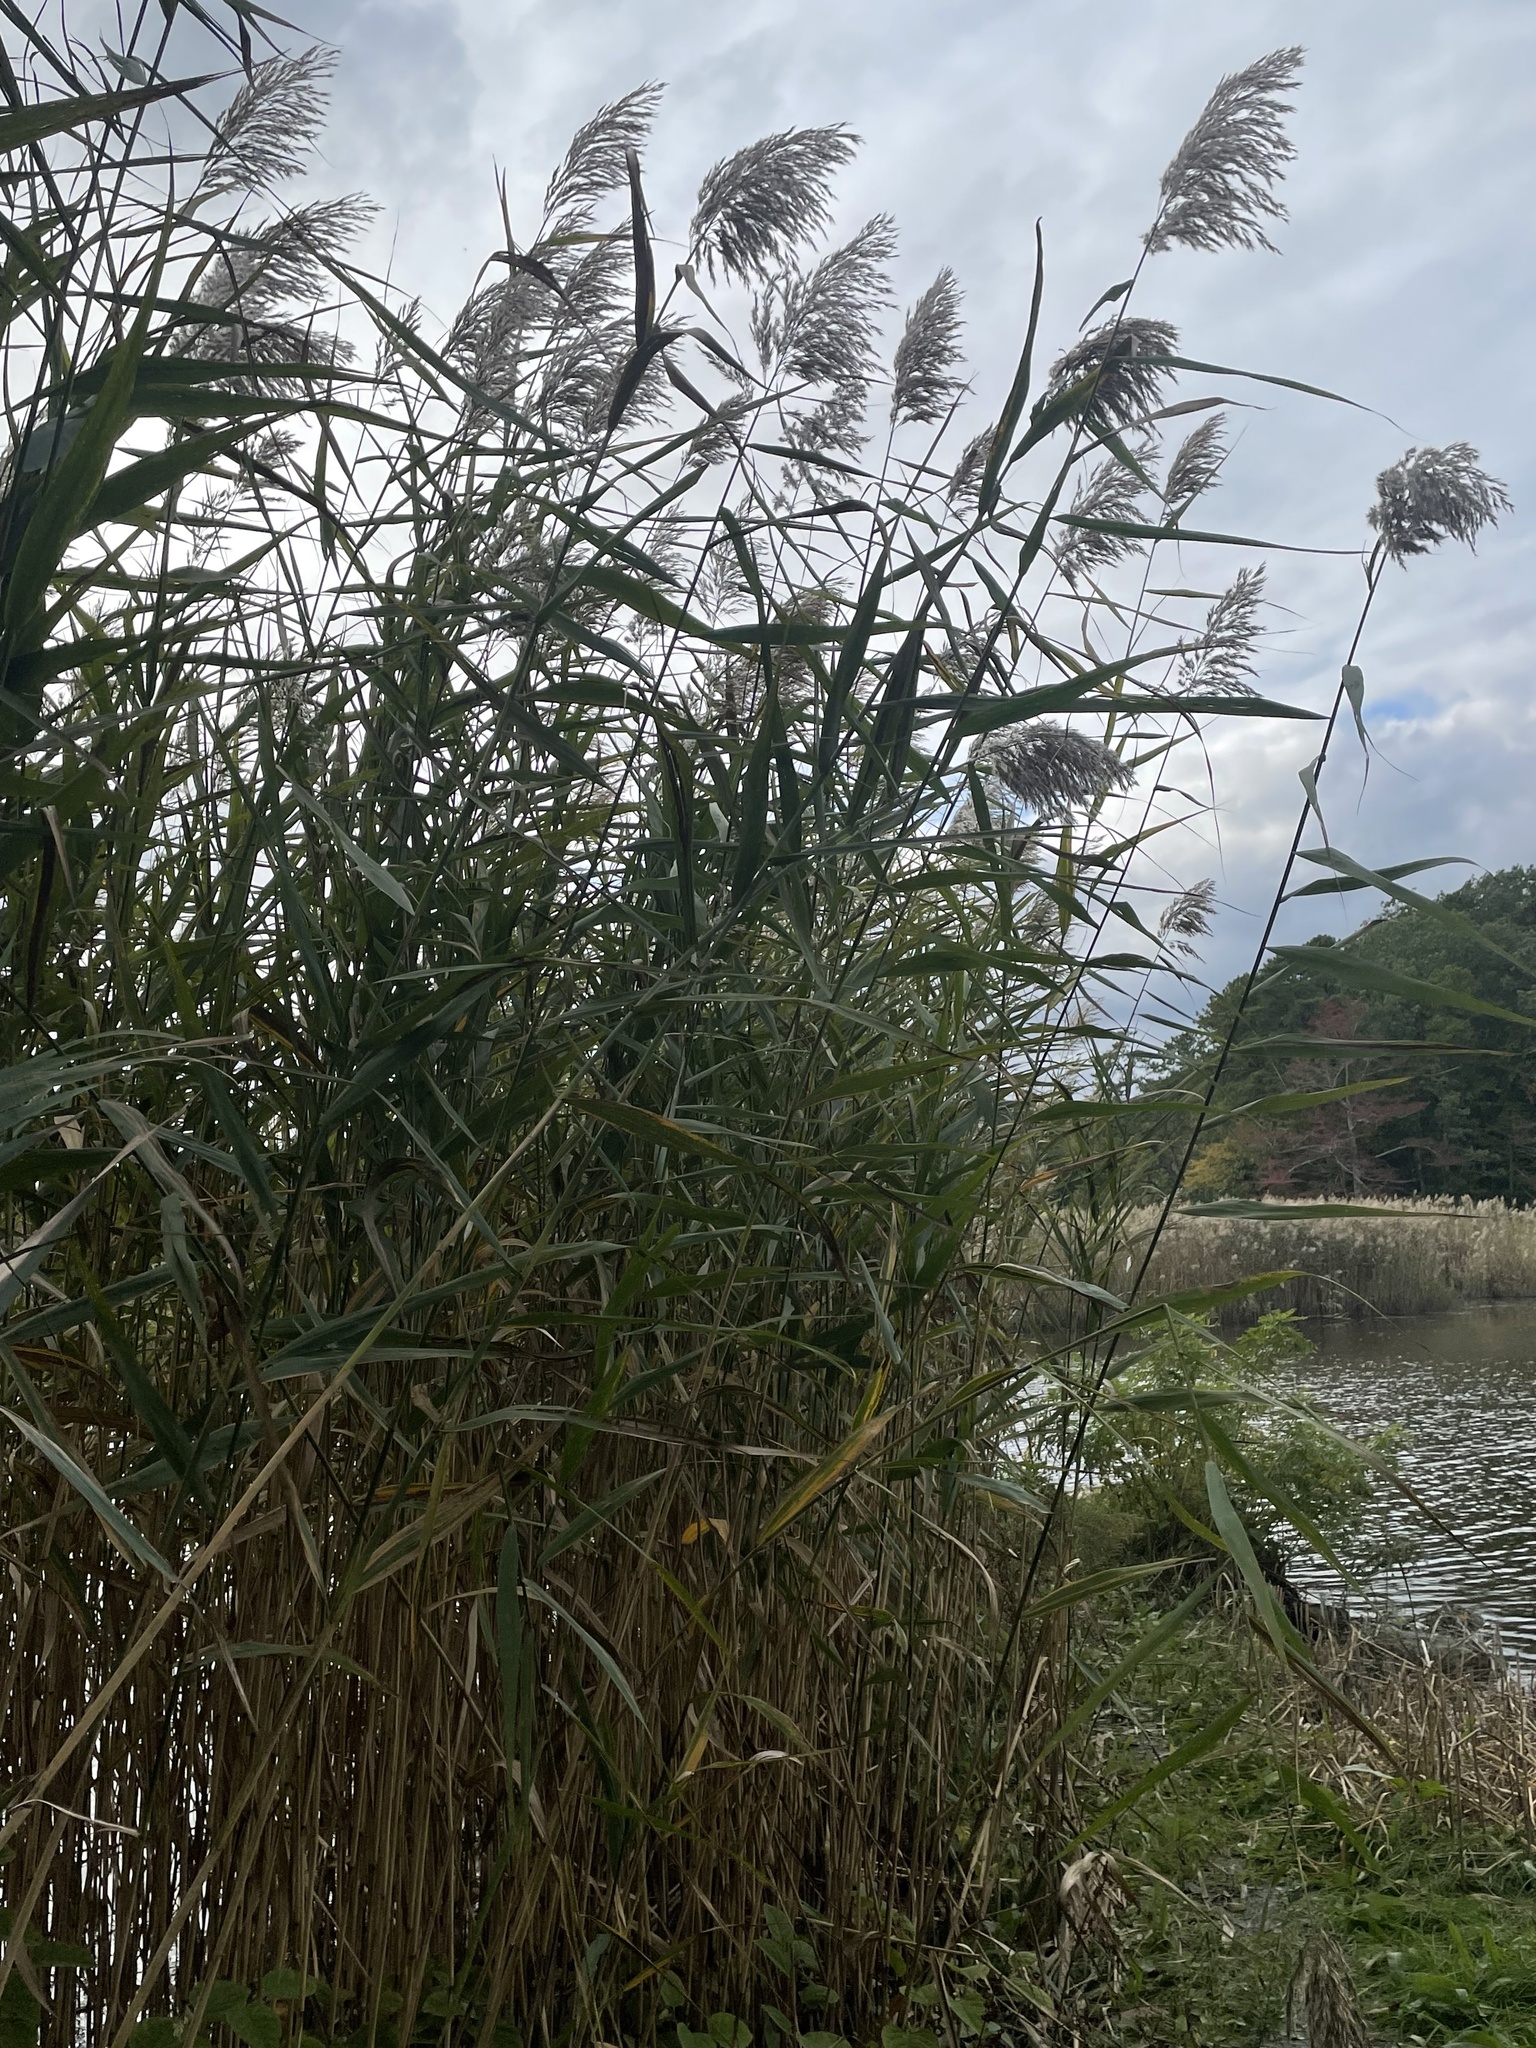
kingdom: Plantae
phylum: Tracheophyta
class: Liliopsida
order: Poales
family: Poaceae
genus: Phragmites
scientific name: Phragmites australis
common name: Common reed
